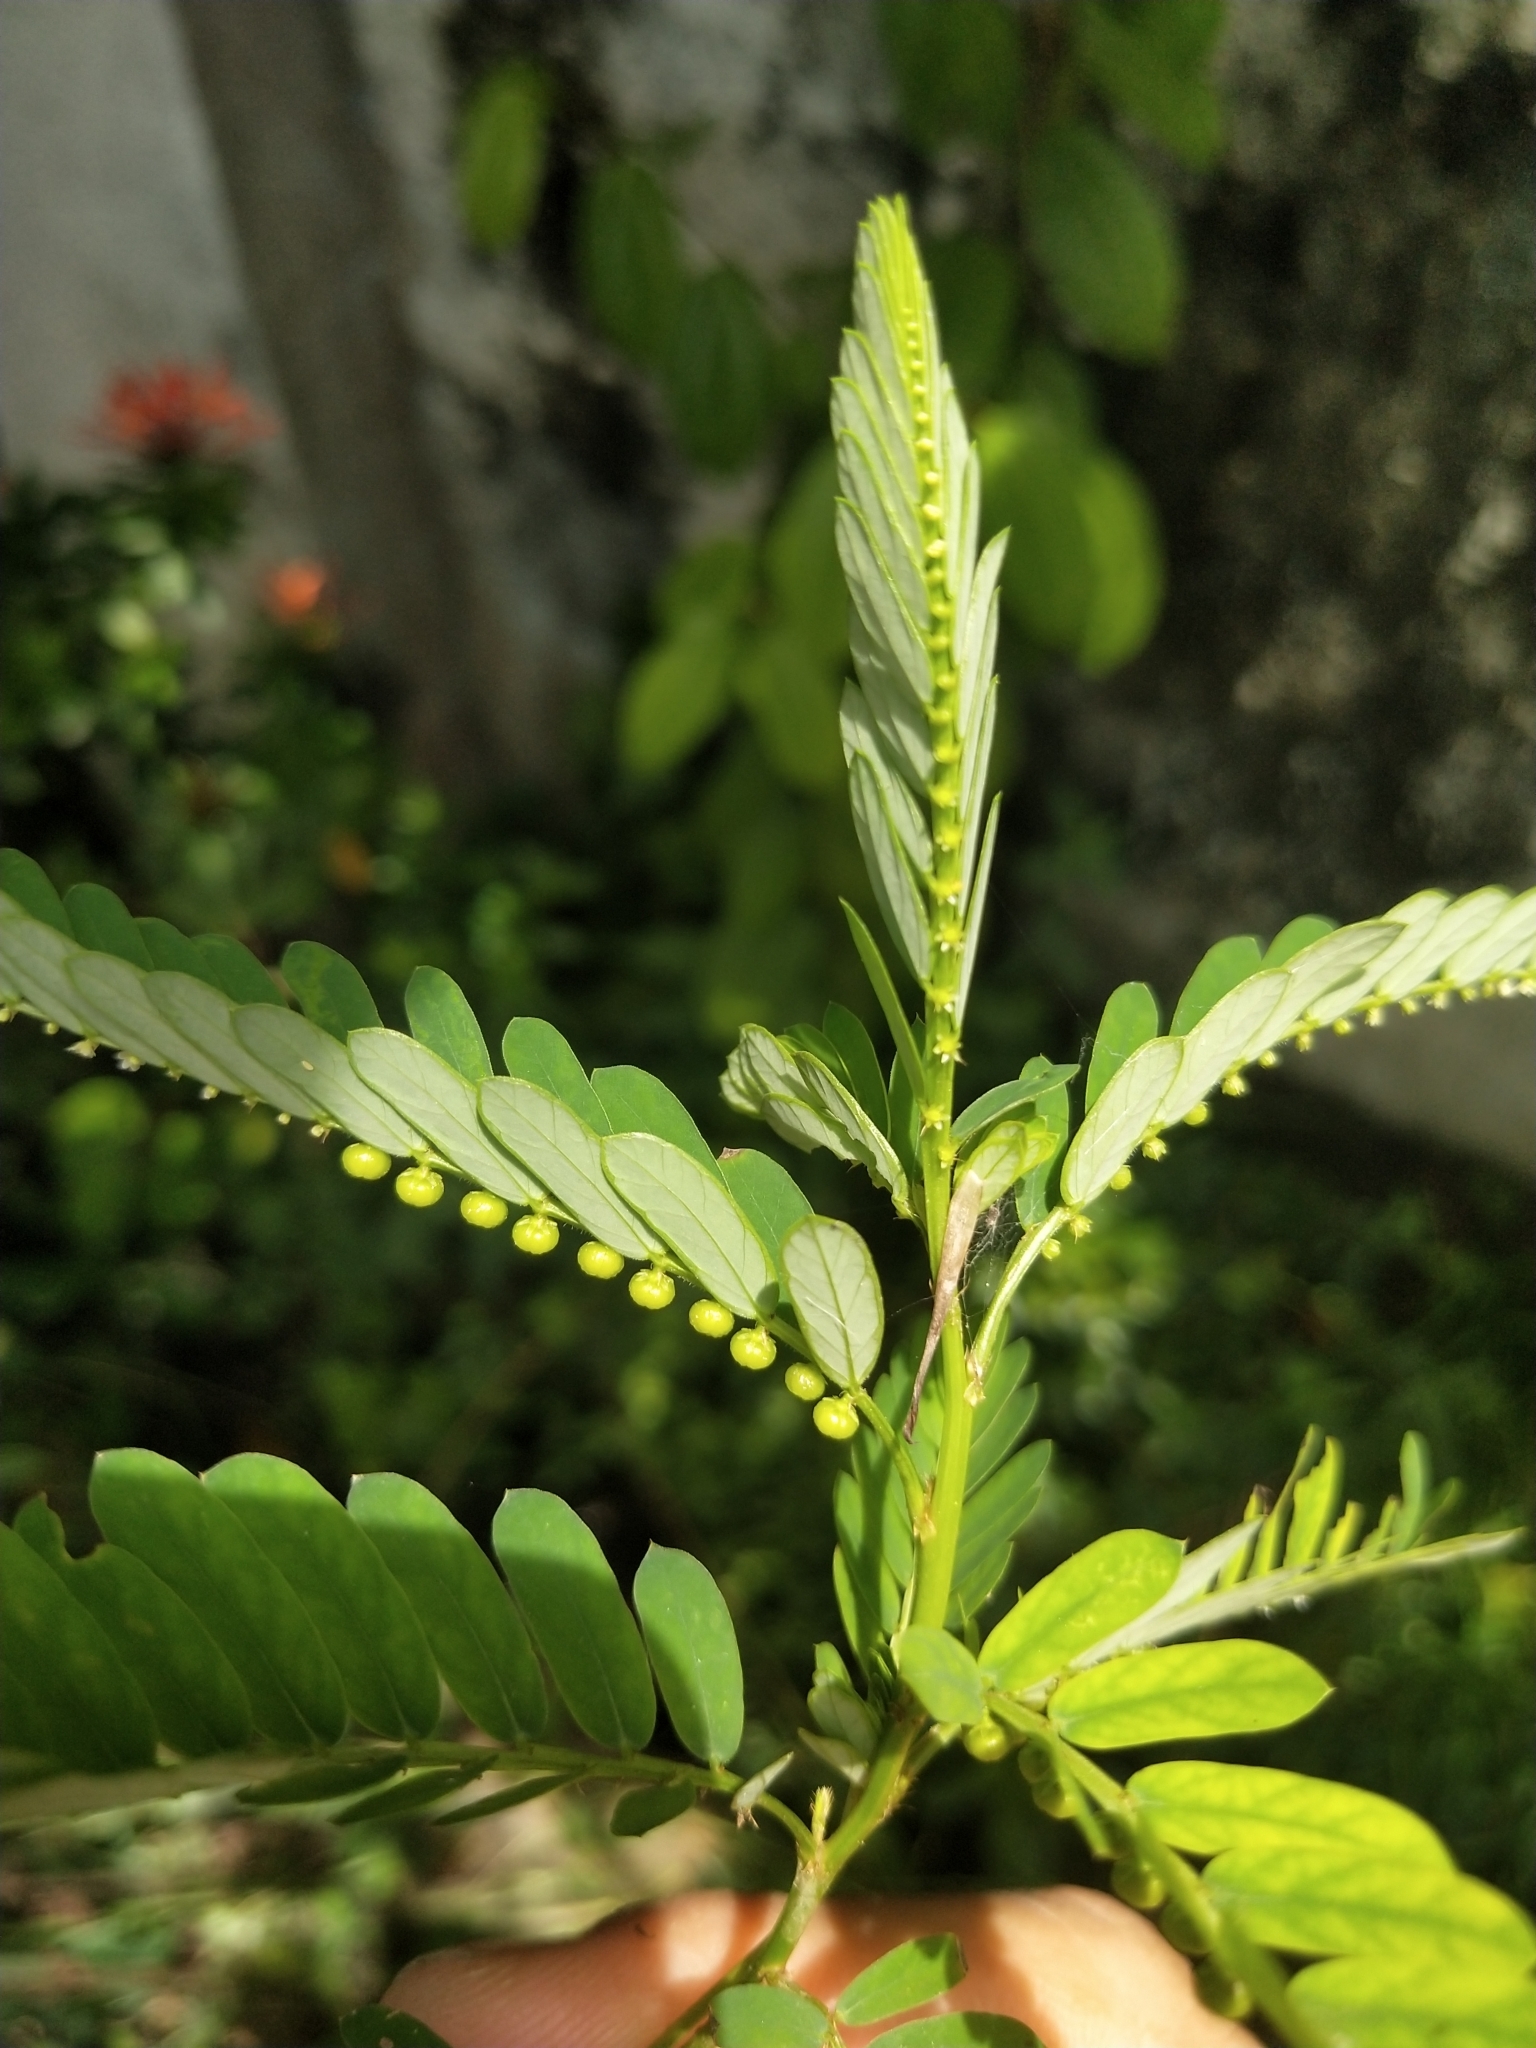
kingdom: Plantae
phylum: Tracheophyta
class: Magnoliopsida
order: Malpighiales
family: Phyllanthaceae
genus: Phyllanthus
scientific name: Phyllanthus urinaria
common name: Chamber bitter
